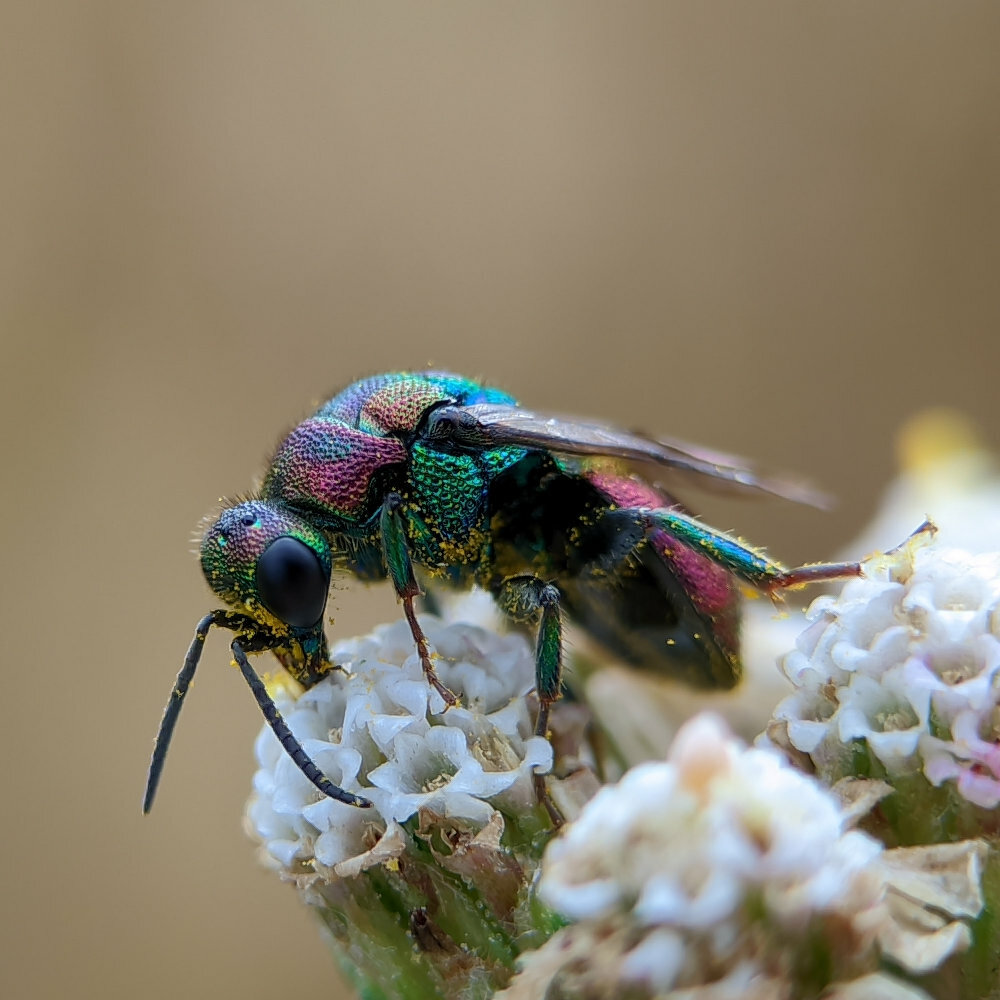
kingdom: Animalia
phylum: Arthropoda
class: Insecta
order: Hymenoptera
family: Chrysididae
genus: Hedychrum
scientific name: Hedychrum rutilans
